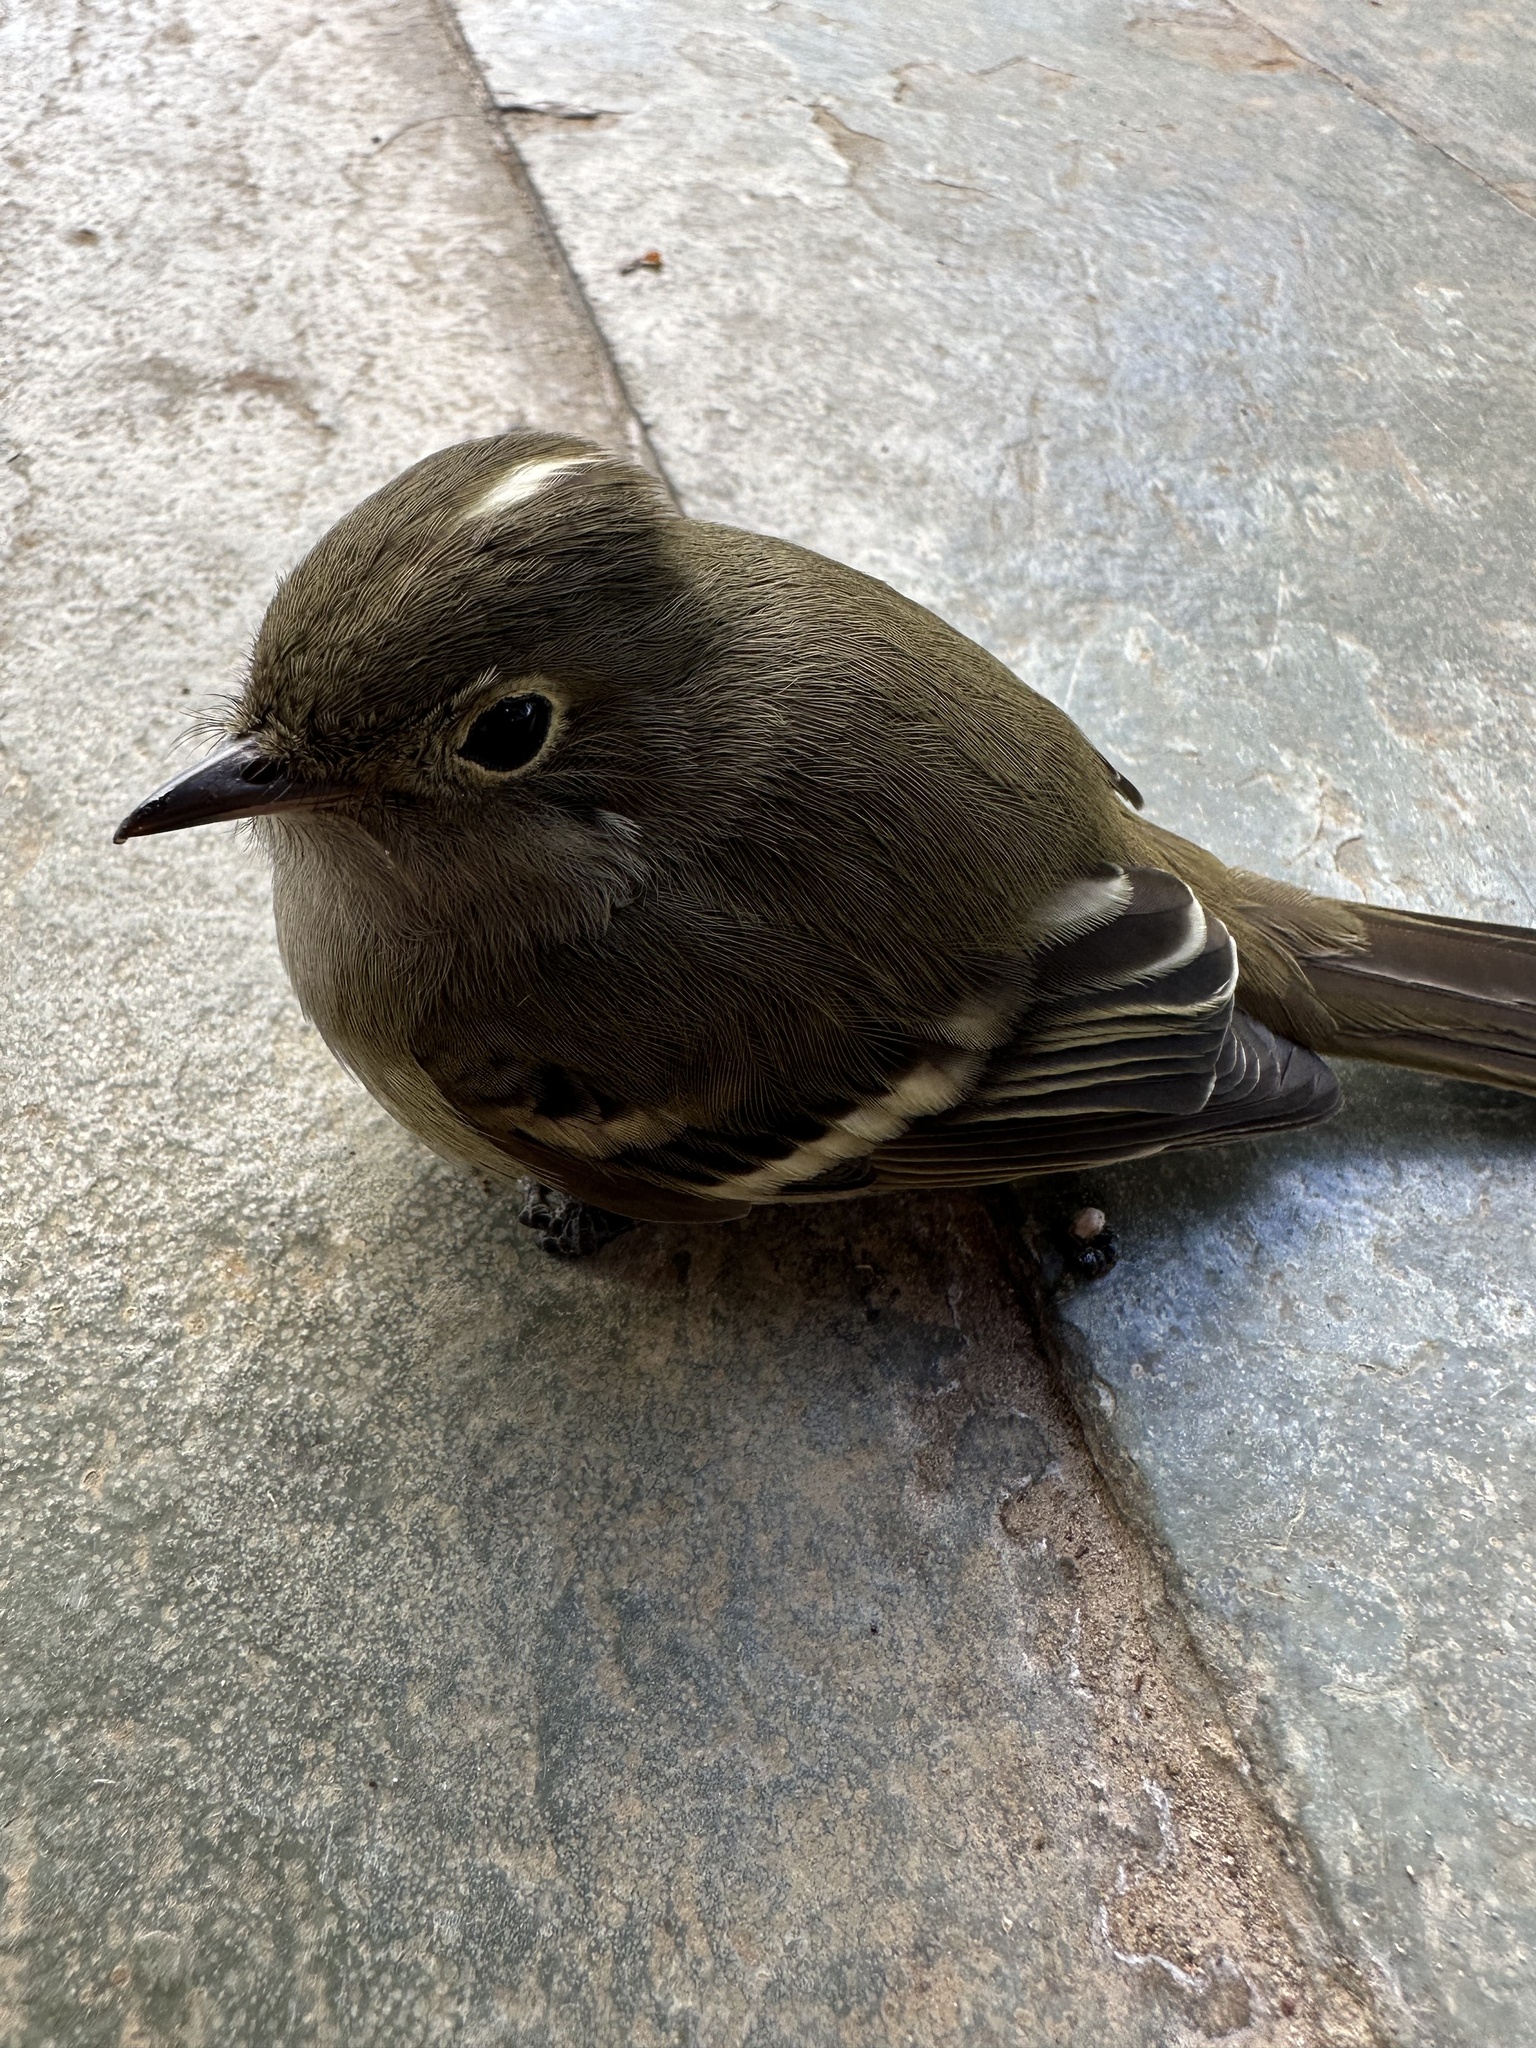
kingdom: Animalia
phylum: Chordata
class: Aves
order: Passeriformes
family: Tyrannidae
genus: Elaenia
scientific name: Elaenia albiceps
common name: White-crested elaenia
